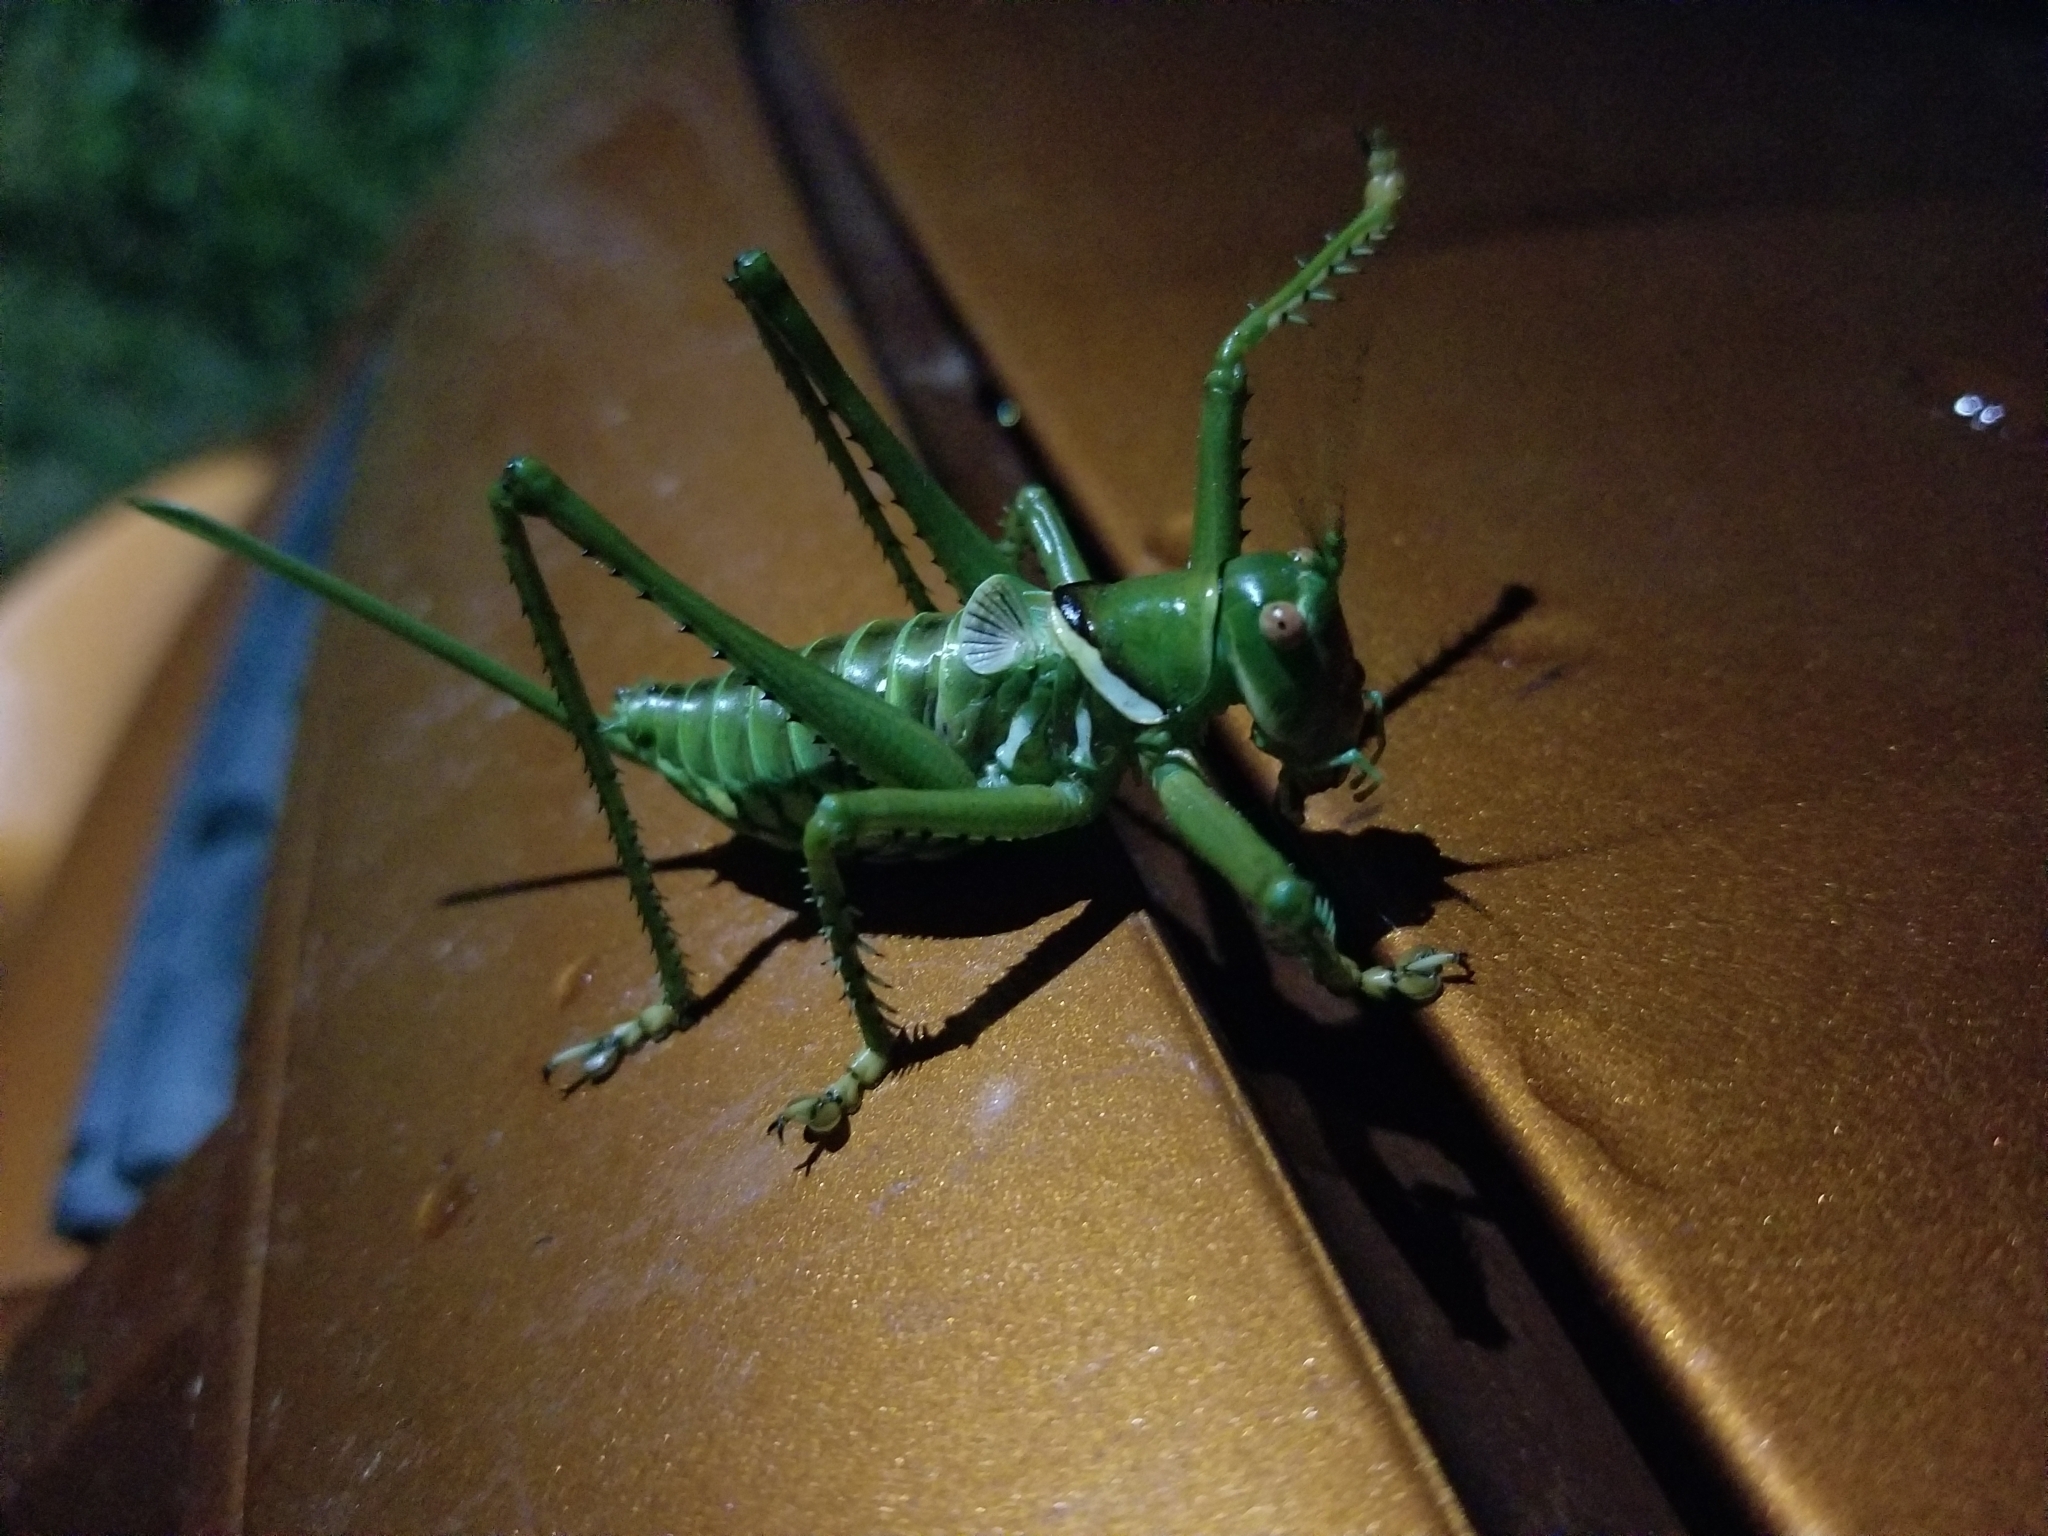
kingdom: Animalia
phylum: Arthropoda
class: Insecta
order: Orthoptera
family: Tettigoniidae
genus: Neobarrettia
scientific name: Neobarrettia spinosa
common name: Greater arid-land katydid
